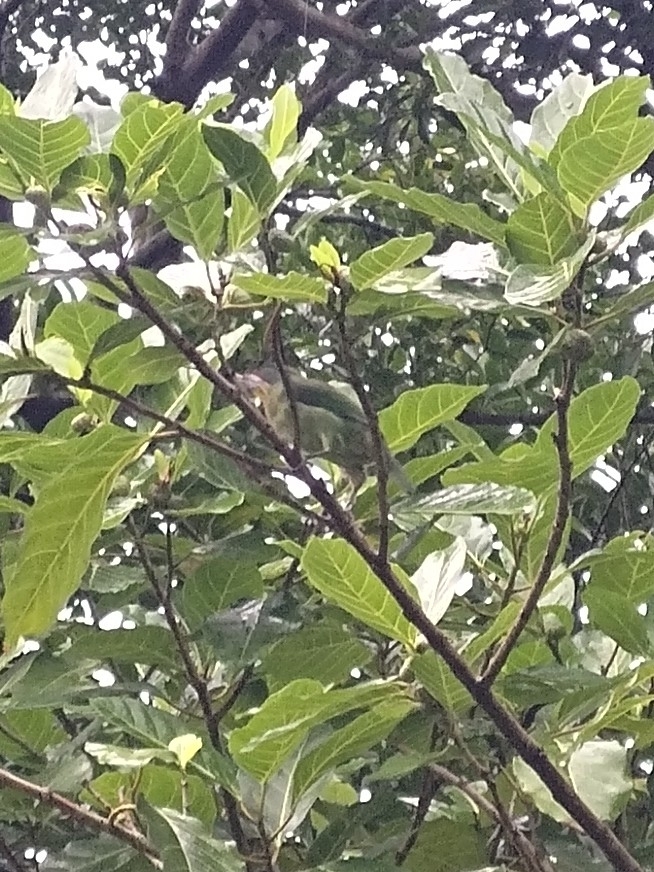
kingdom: Animalia
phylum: Chordata
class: Aves
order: Piciformes
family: Megalaimidae
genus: Psilopogon
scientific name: Psilopogon nuchalis
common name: Taiwan barbet
